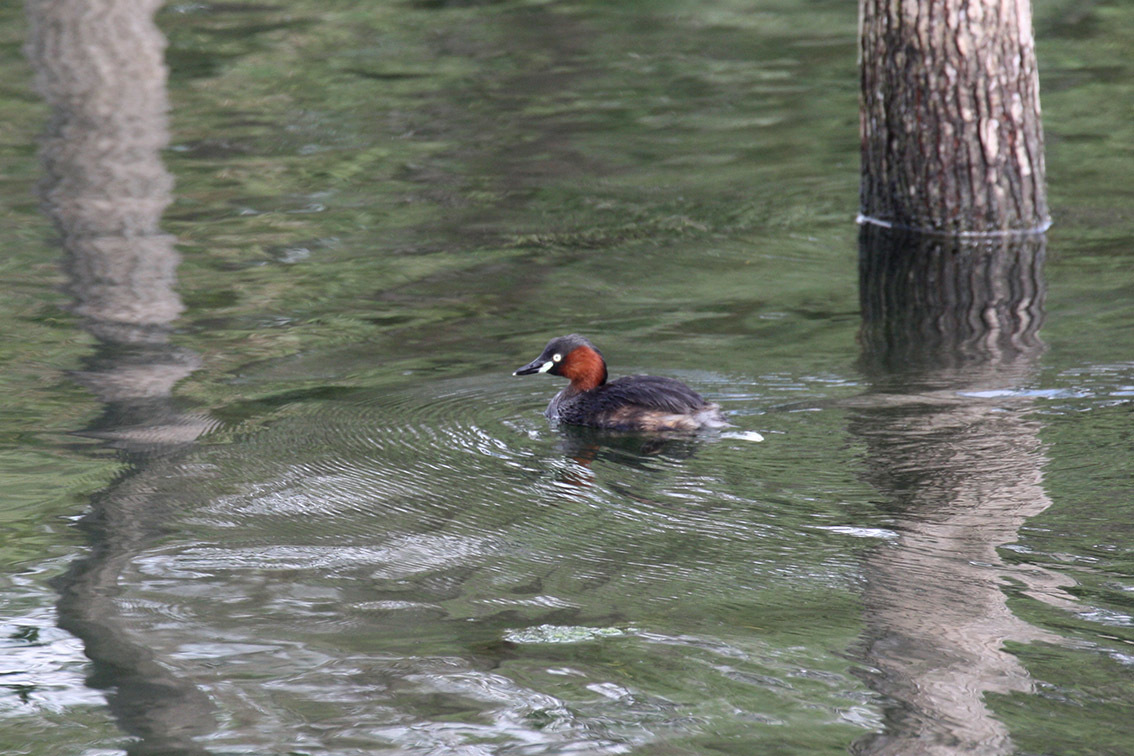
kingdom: Animalia
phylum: Chordata
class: Aves
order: Podicipediformes
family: Podicipedidae
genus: Tachybaptus
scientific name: Tachybaptus ruficollis
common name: Little grebe
